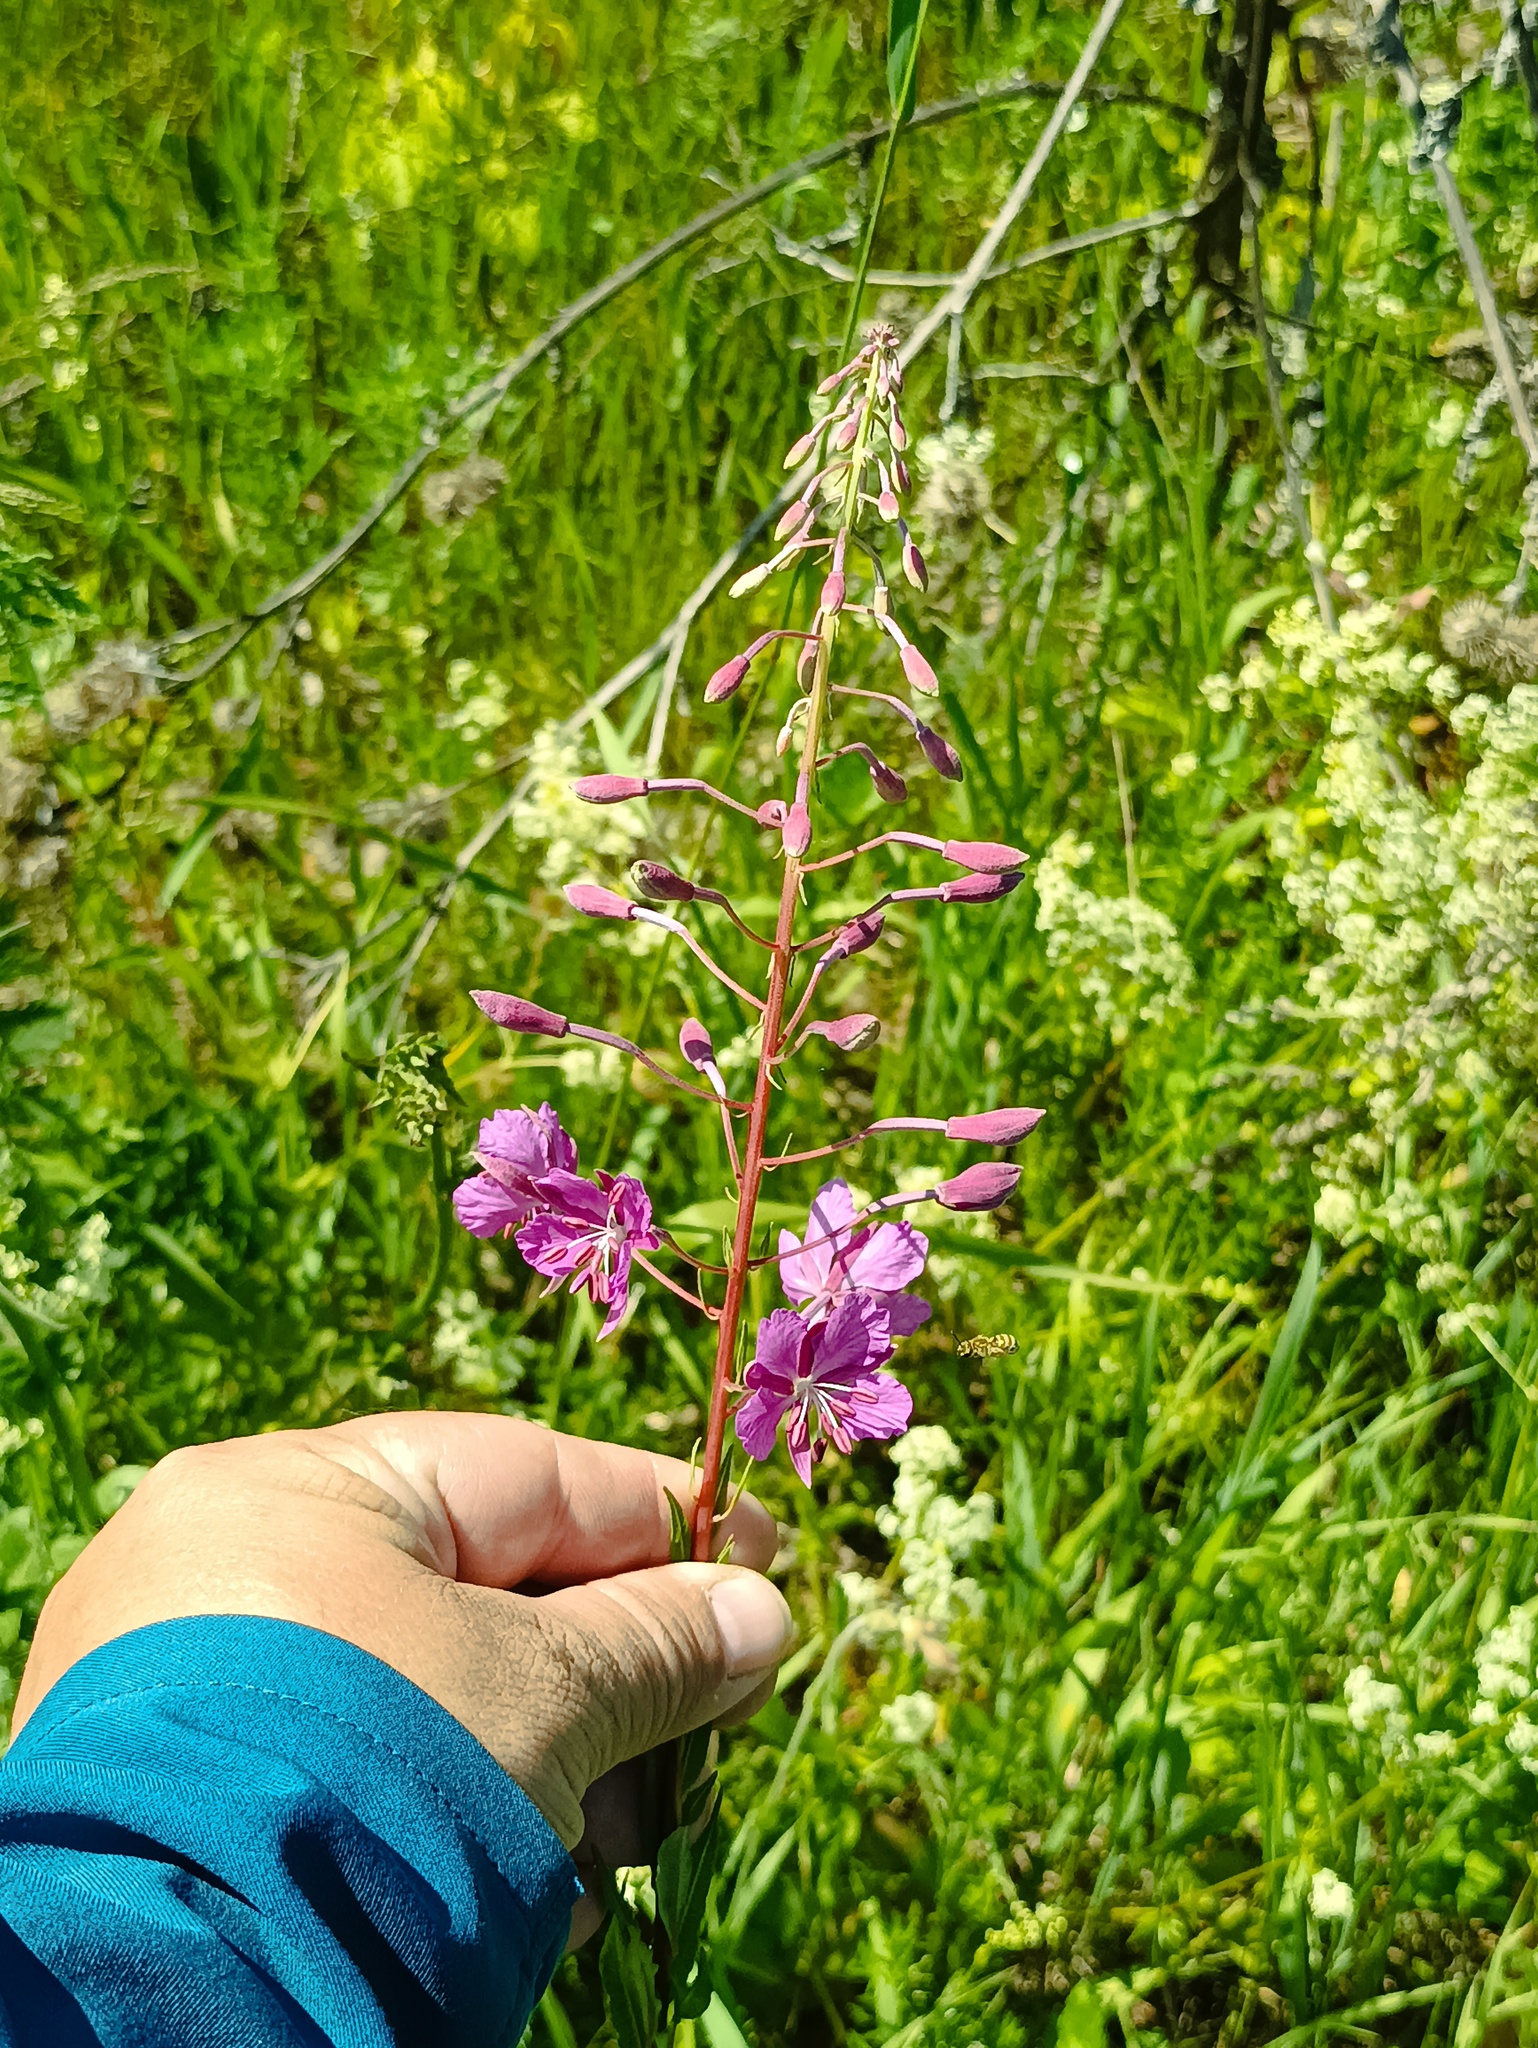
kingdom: Plantae
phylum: Tracheophyta
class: Magnoliopsida
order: Myrtales
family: Onagraceae
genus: Chamaenerion
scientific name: Chamaenerion angustifolium
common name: Fireweed
